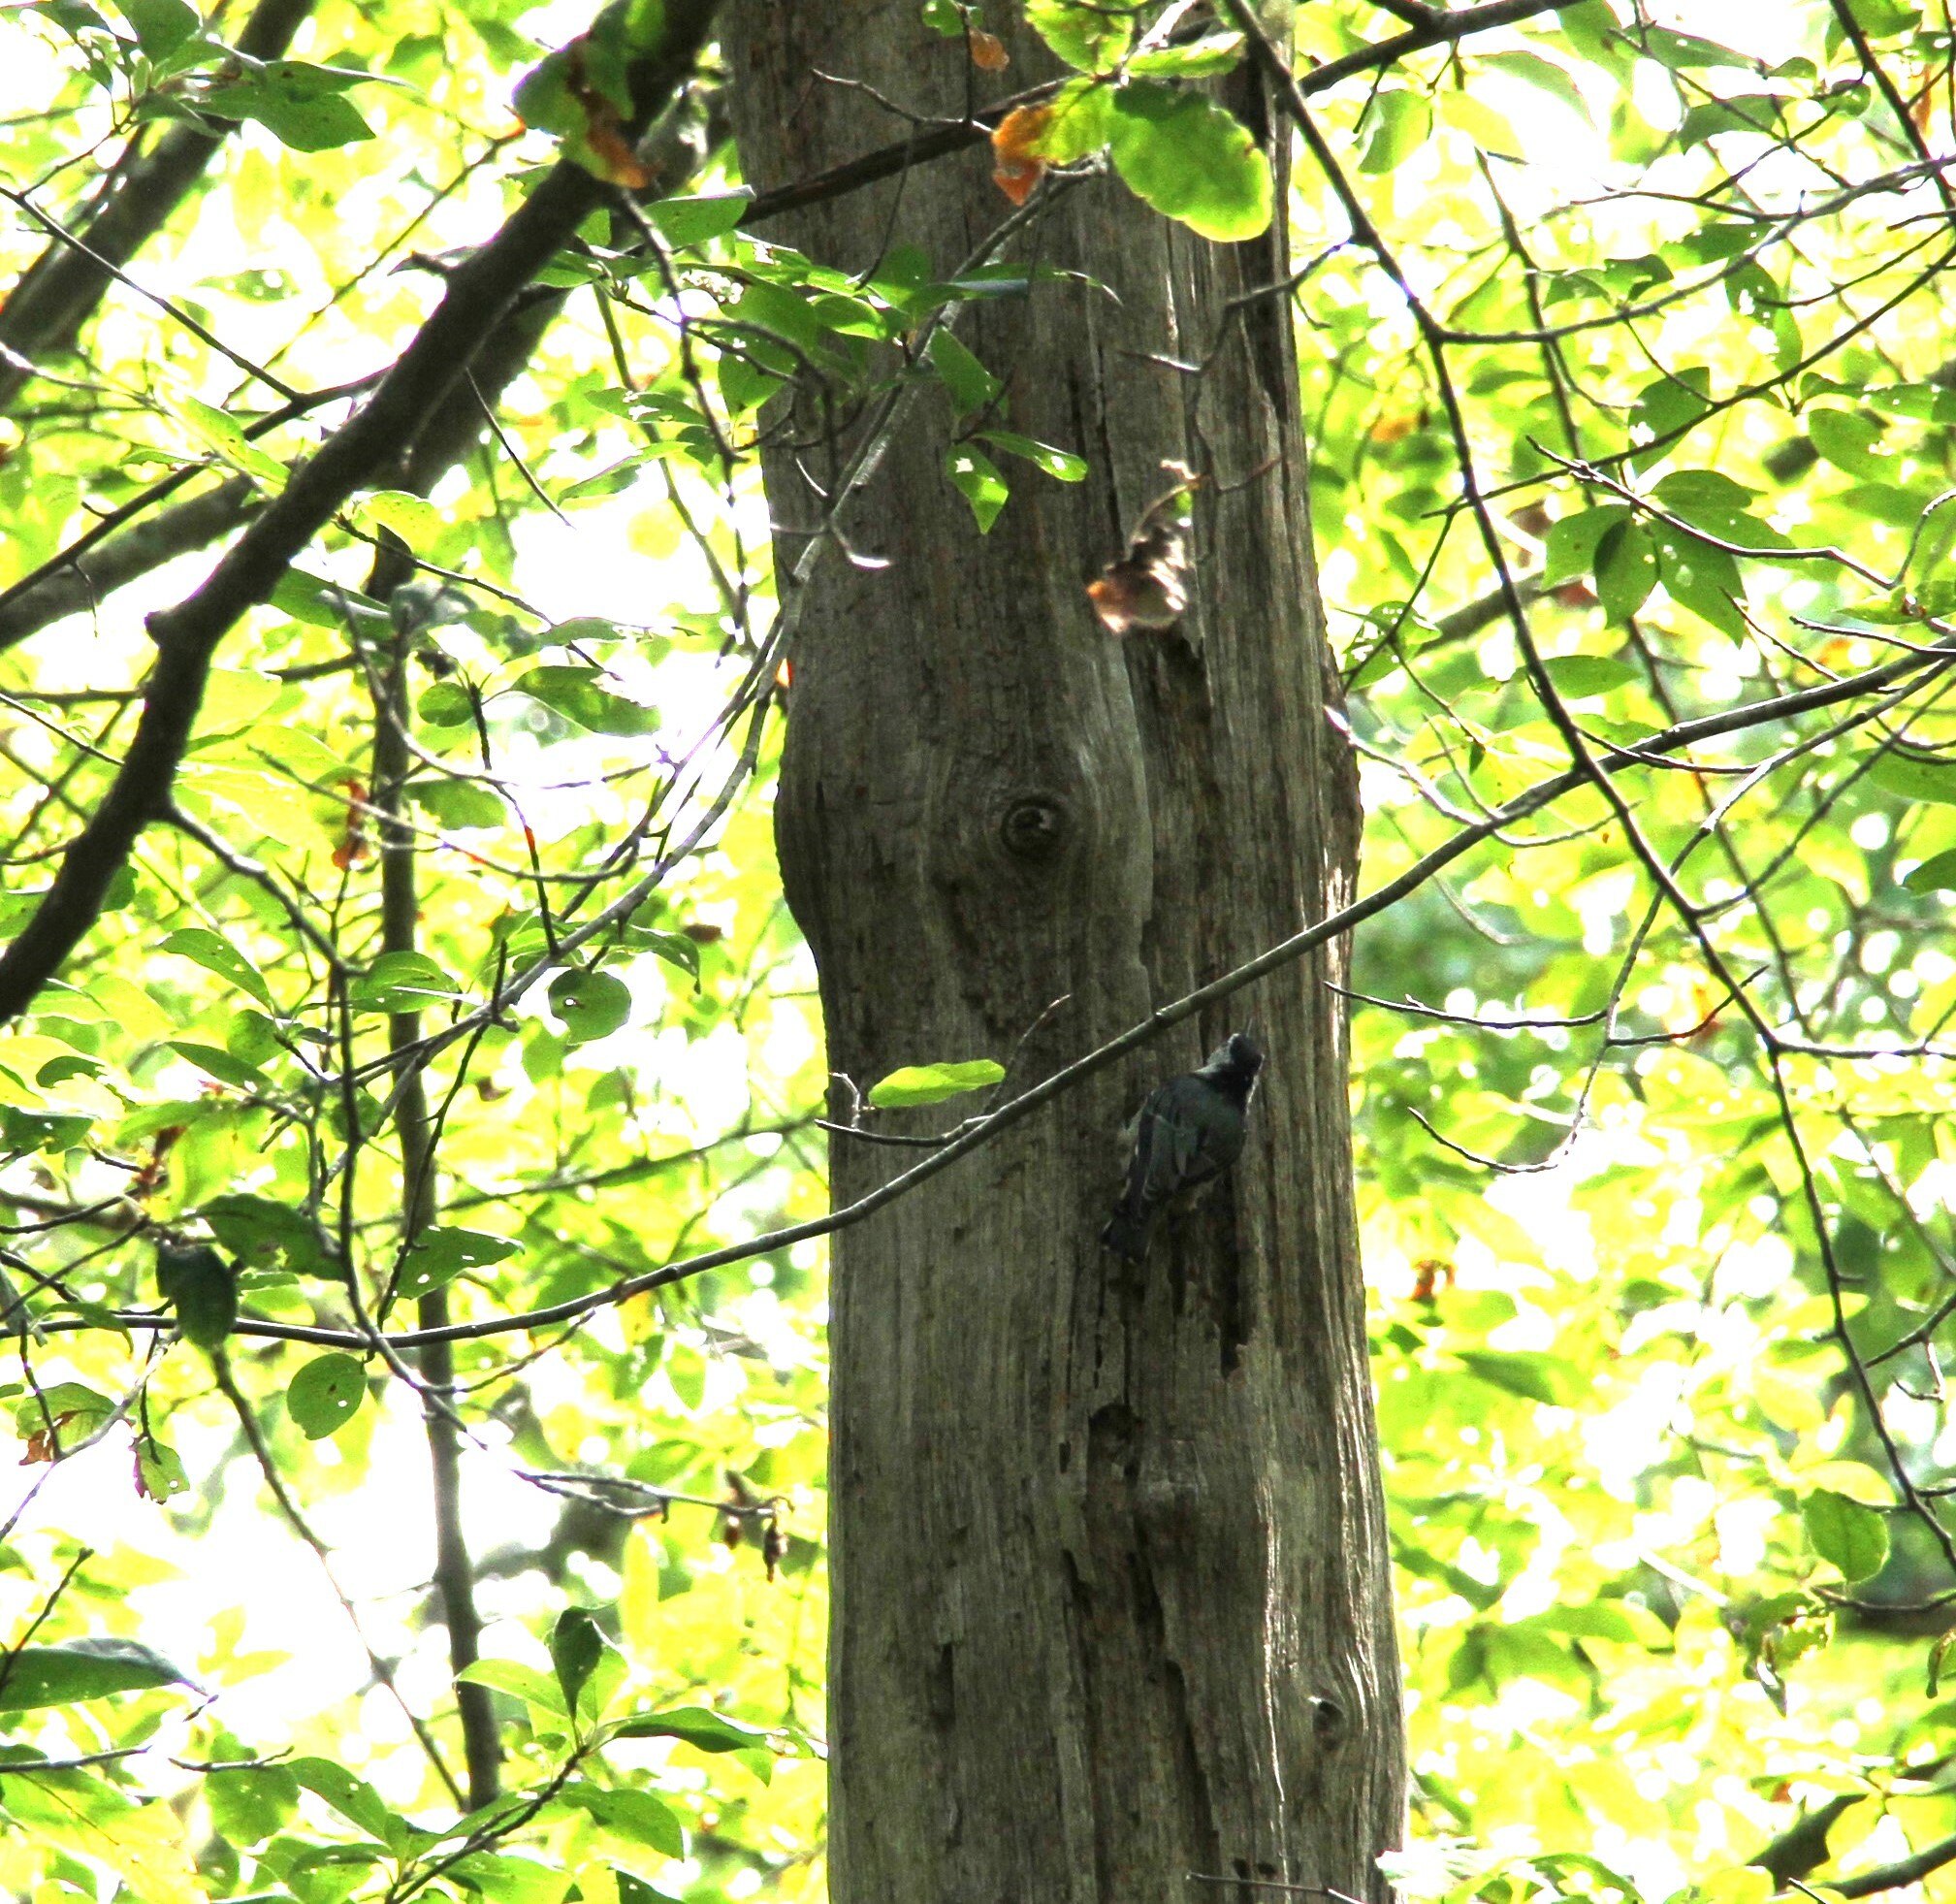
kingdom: Animalia
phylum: Chordata
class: Aves
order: Passeriformes
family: Sittidae
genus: Sitta
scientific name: Sitta carolinensis
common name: White-breasted nuthatch
